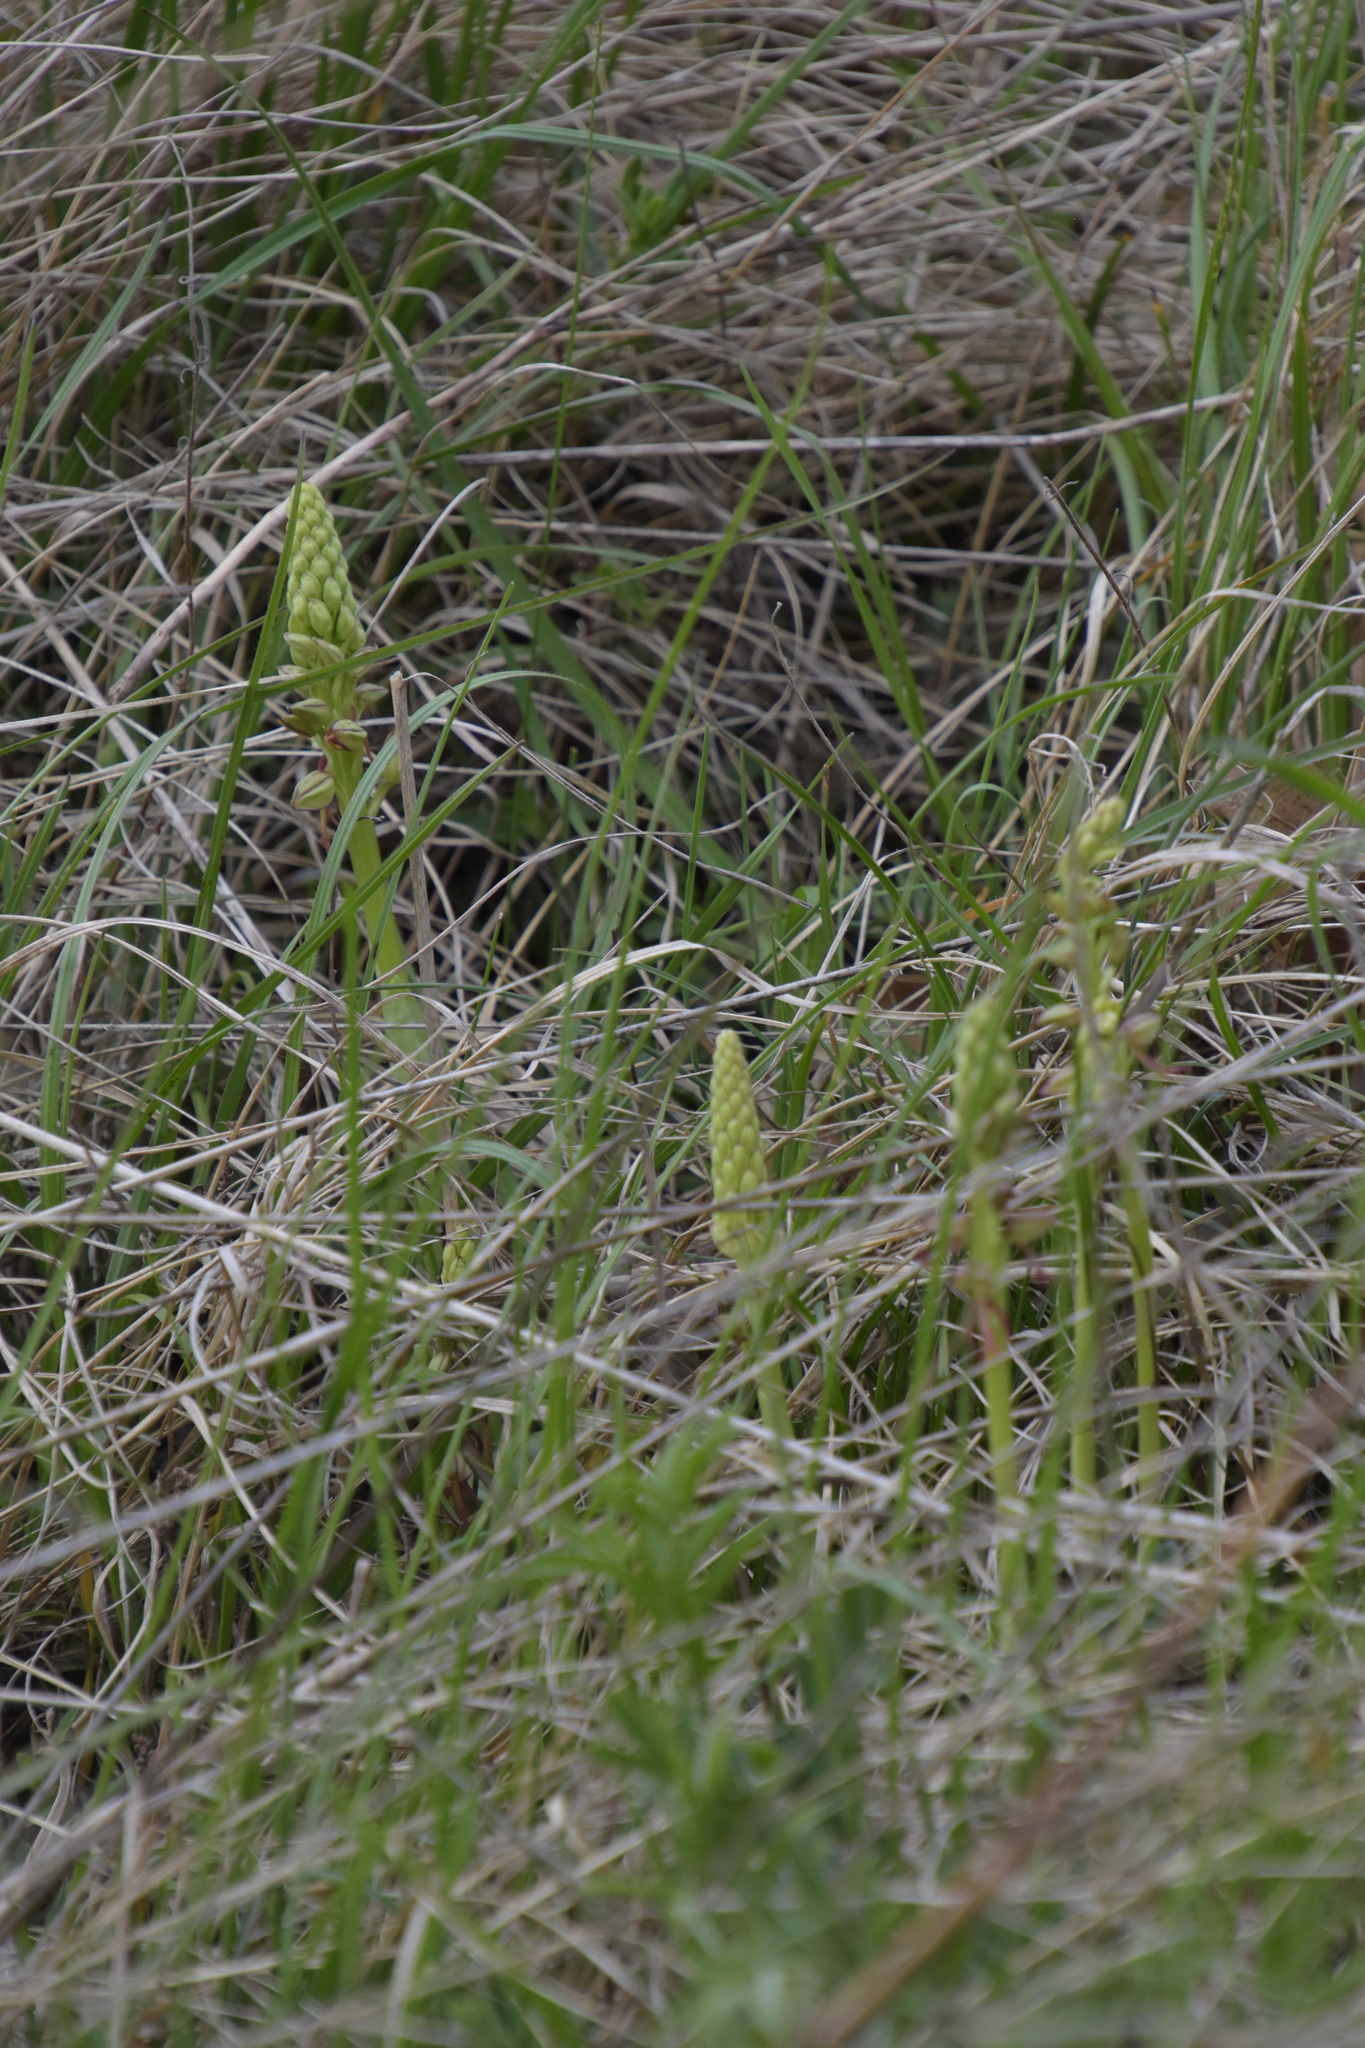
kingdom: Plantae
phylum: Tracheophyta
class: Liliopsida
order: Asparagales
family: Orchidaceae
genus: Orchis
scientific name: Orchis anthropophora
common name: Man orchid
